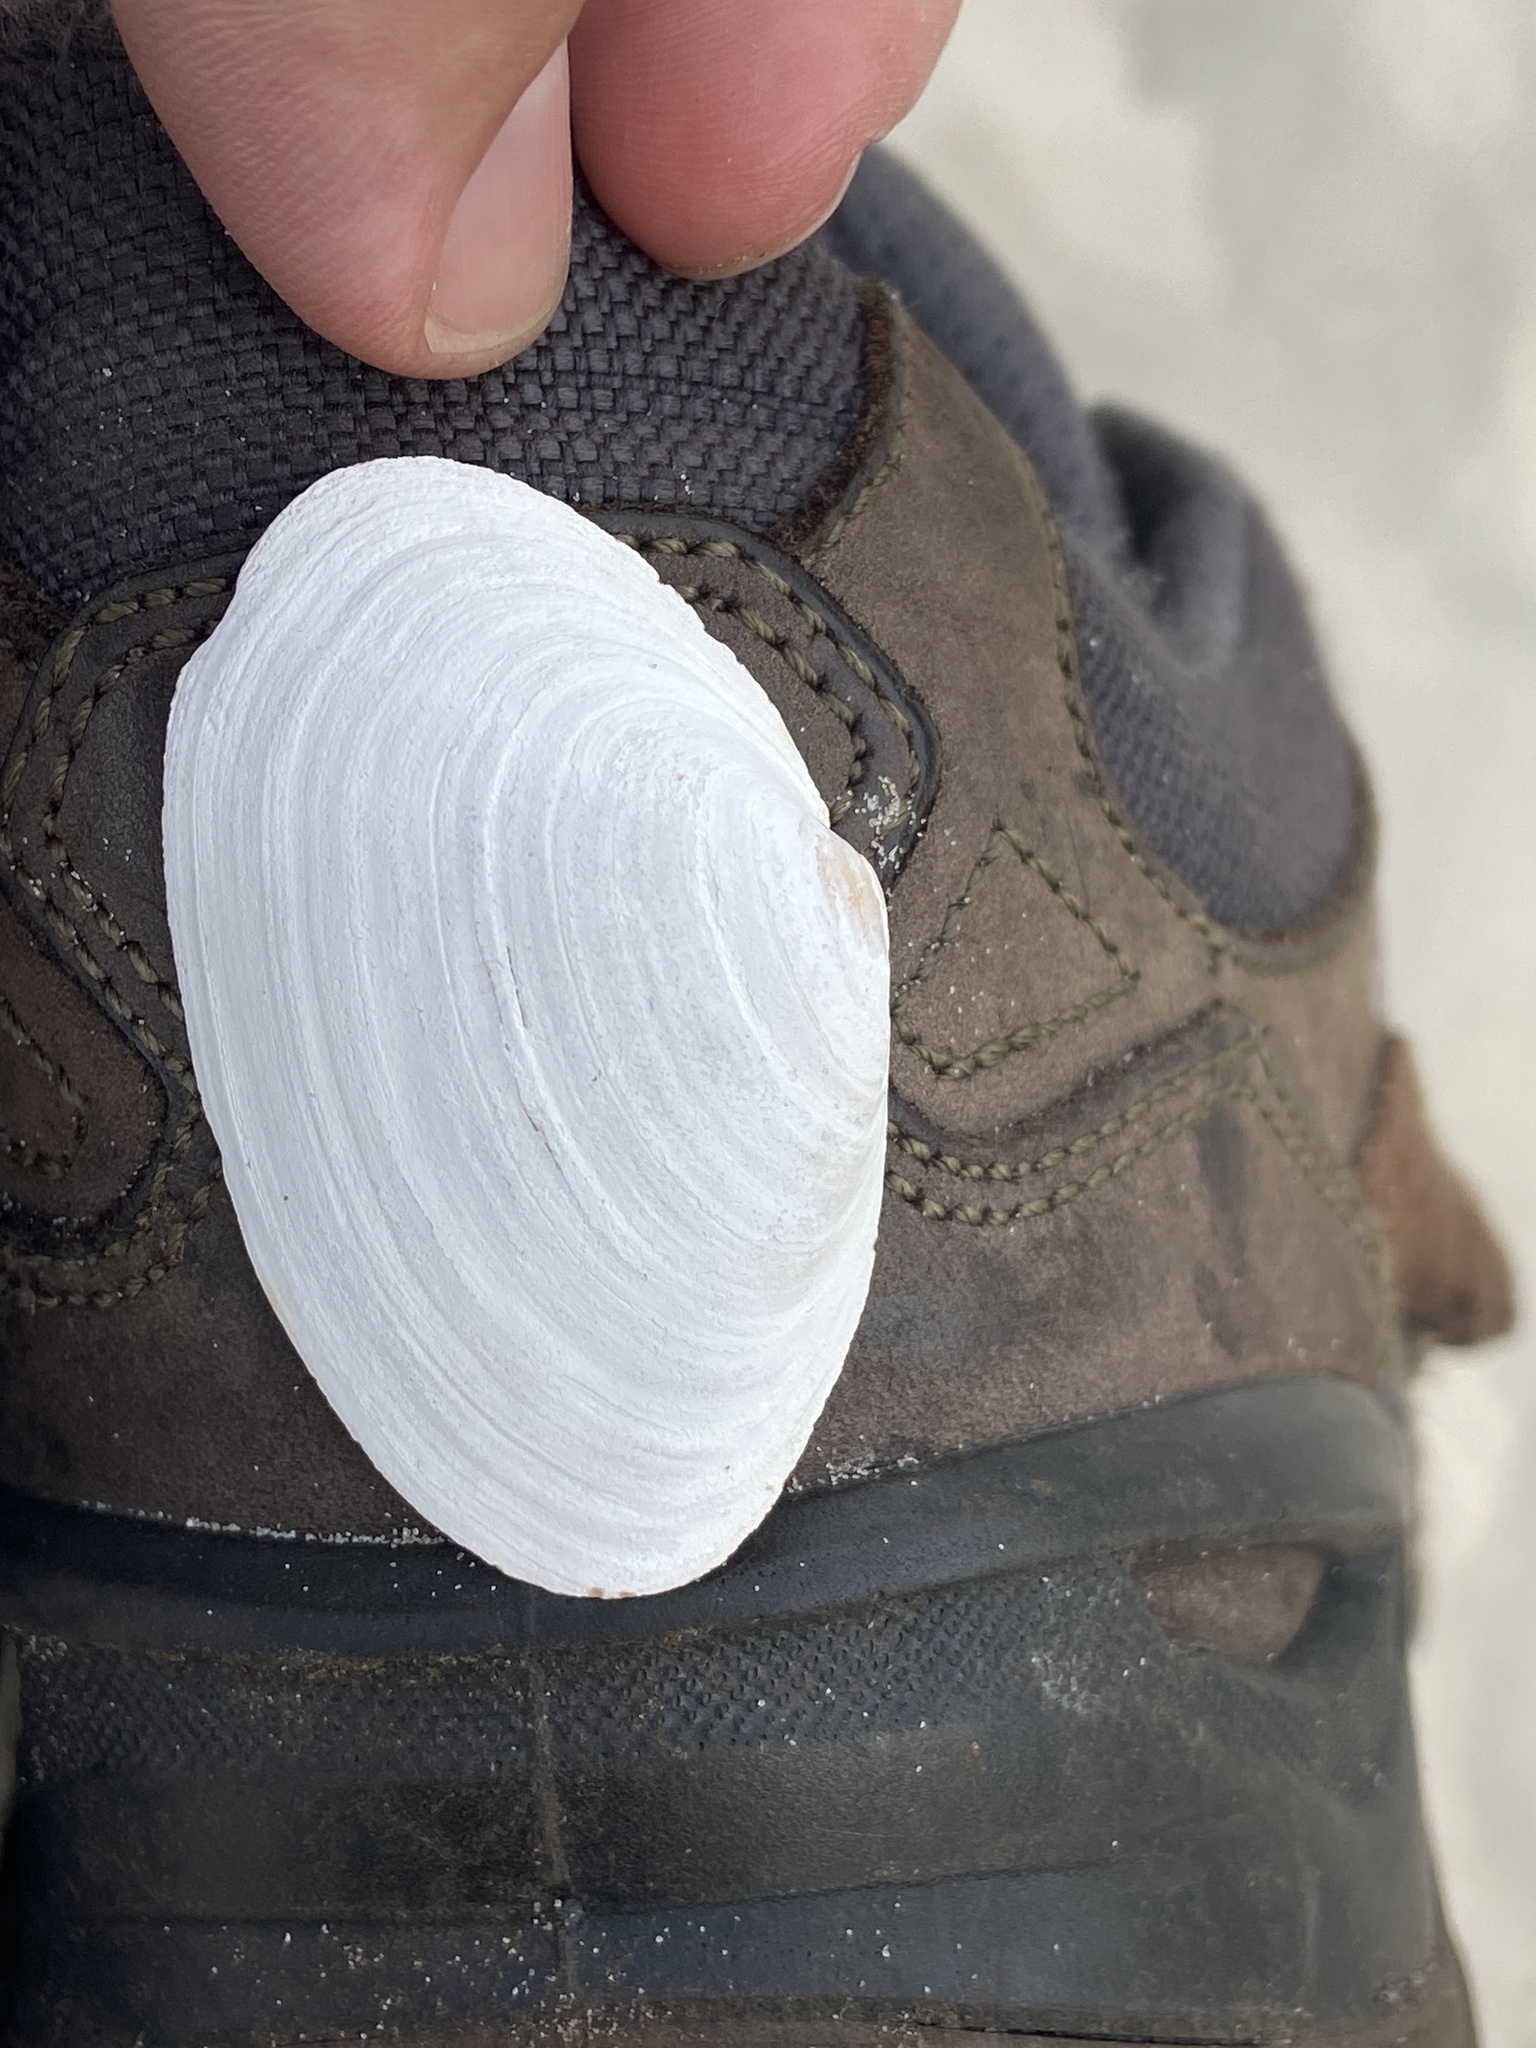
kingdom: Animalia
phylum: Mollusca
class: Bivalvia
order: Myida
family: Myidae
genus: Mya
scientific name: Mya arenaria
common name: Soft-shelled clam
